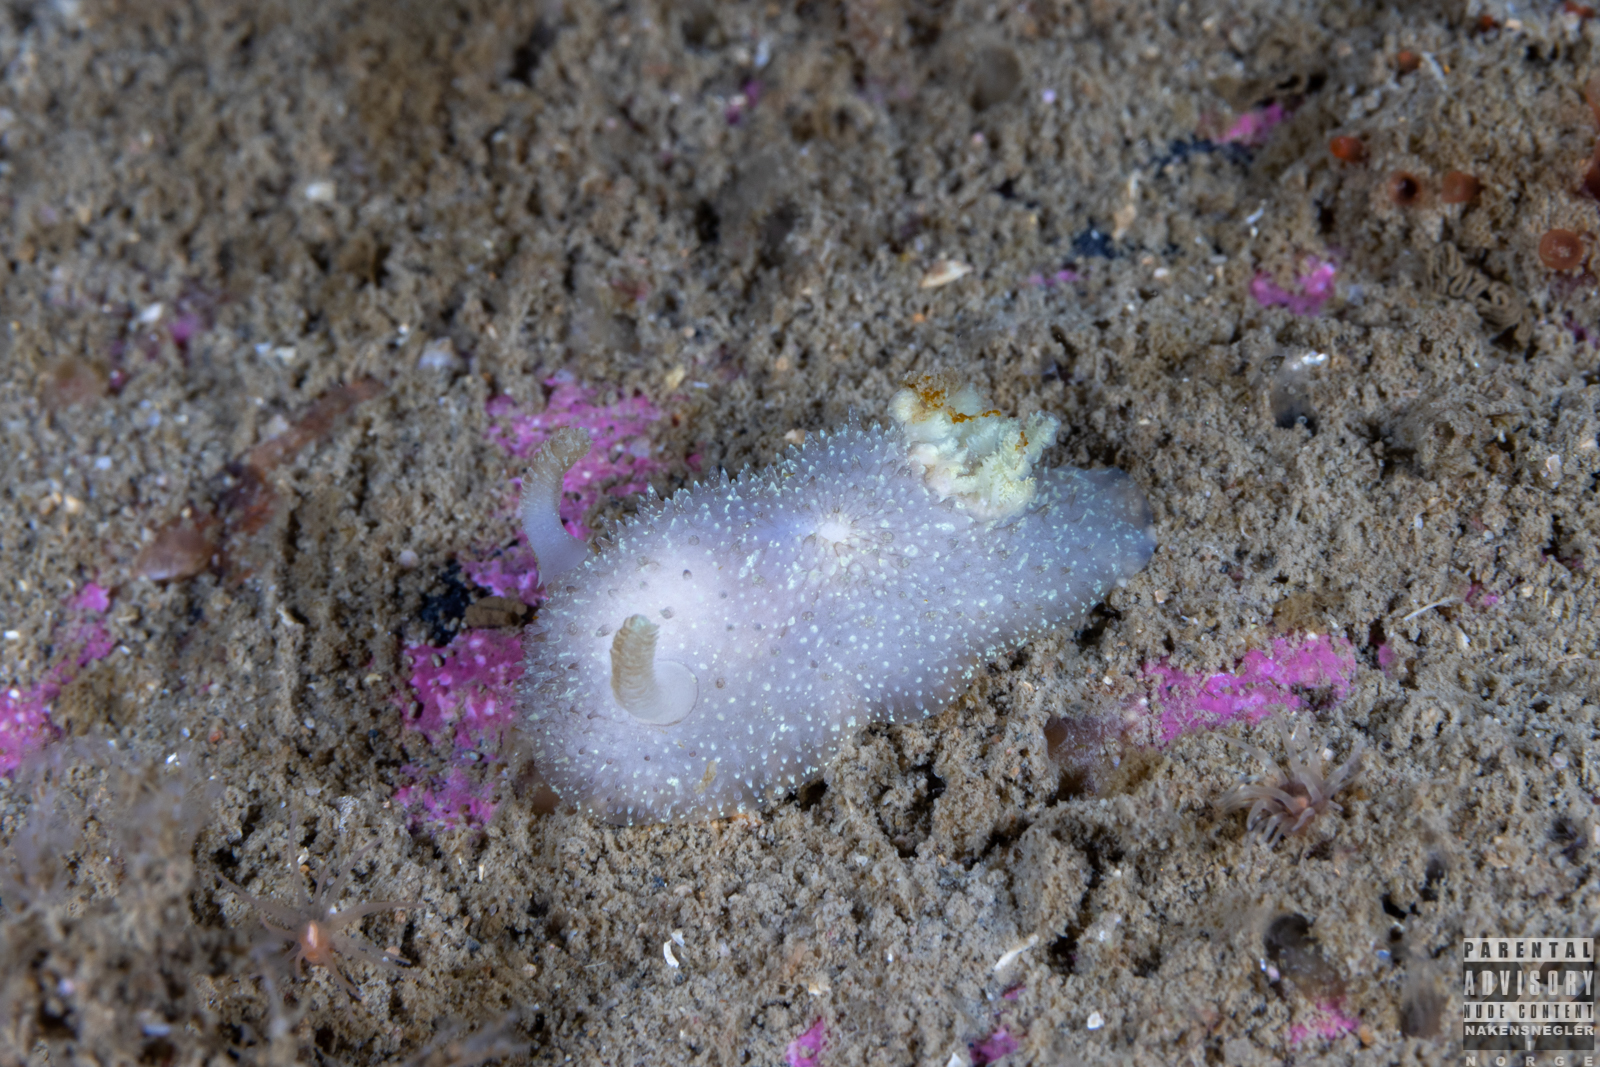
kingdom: Animalia
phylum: Mollusca
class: Gastropoda
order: Nudibranchia
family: Onchidorididae
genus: Acanthodoris
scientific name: Acanthodoris pilosa
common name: Hairy spiny doris
